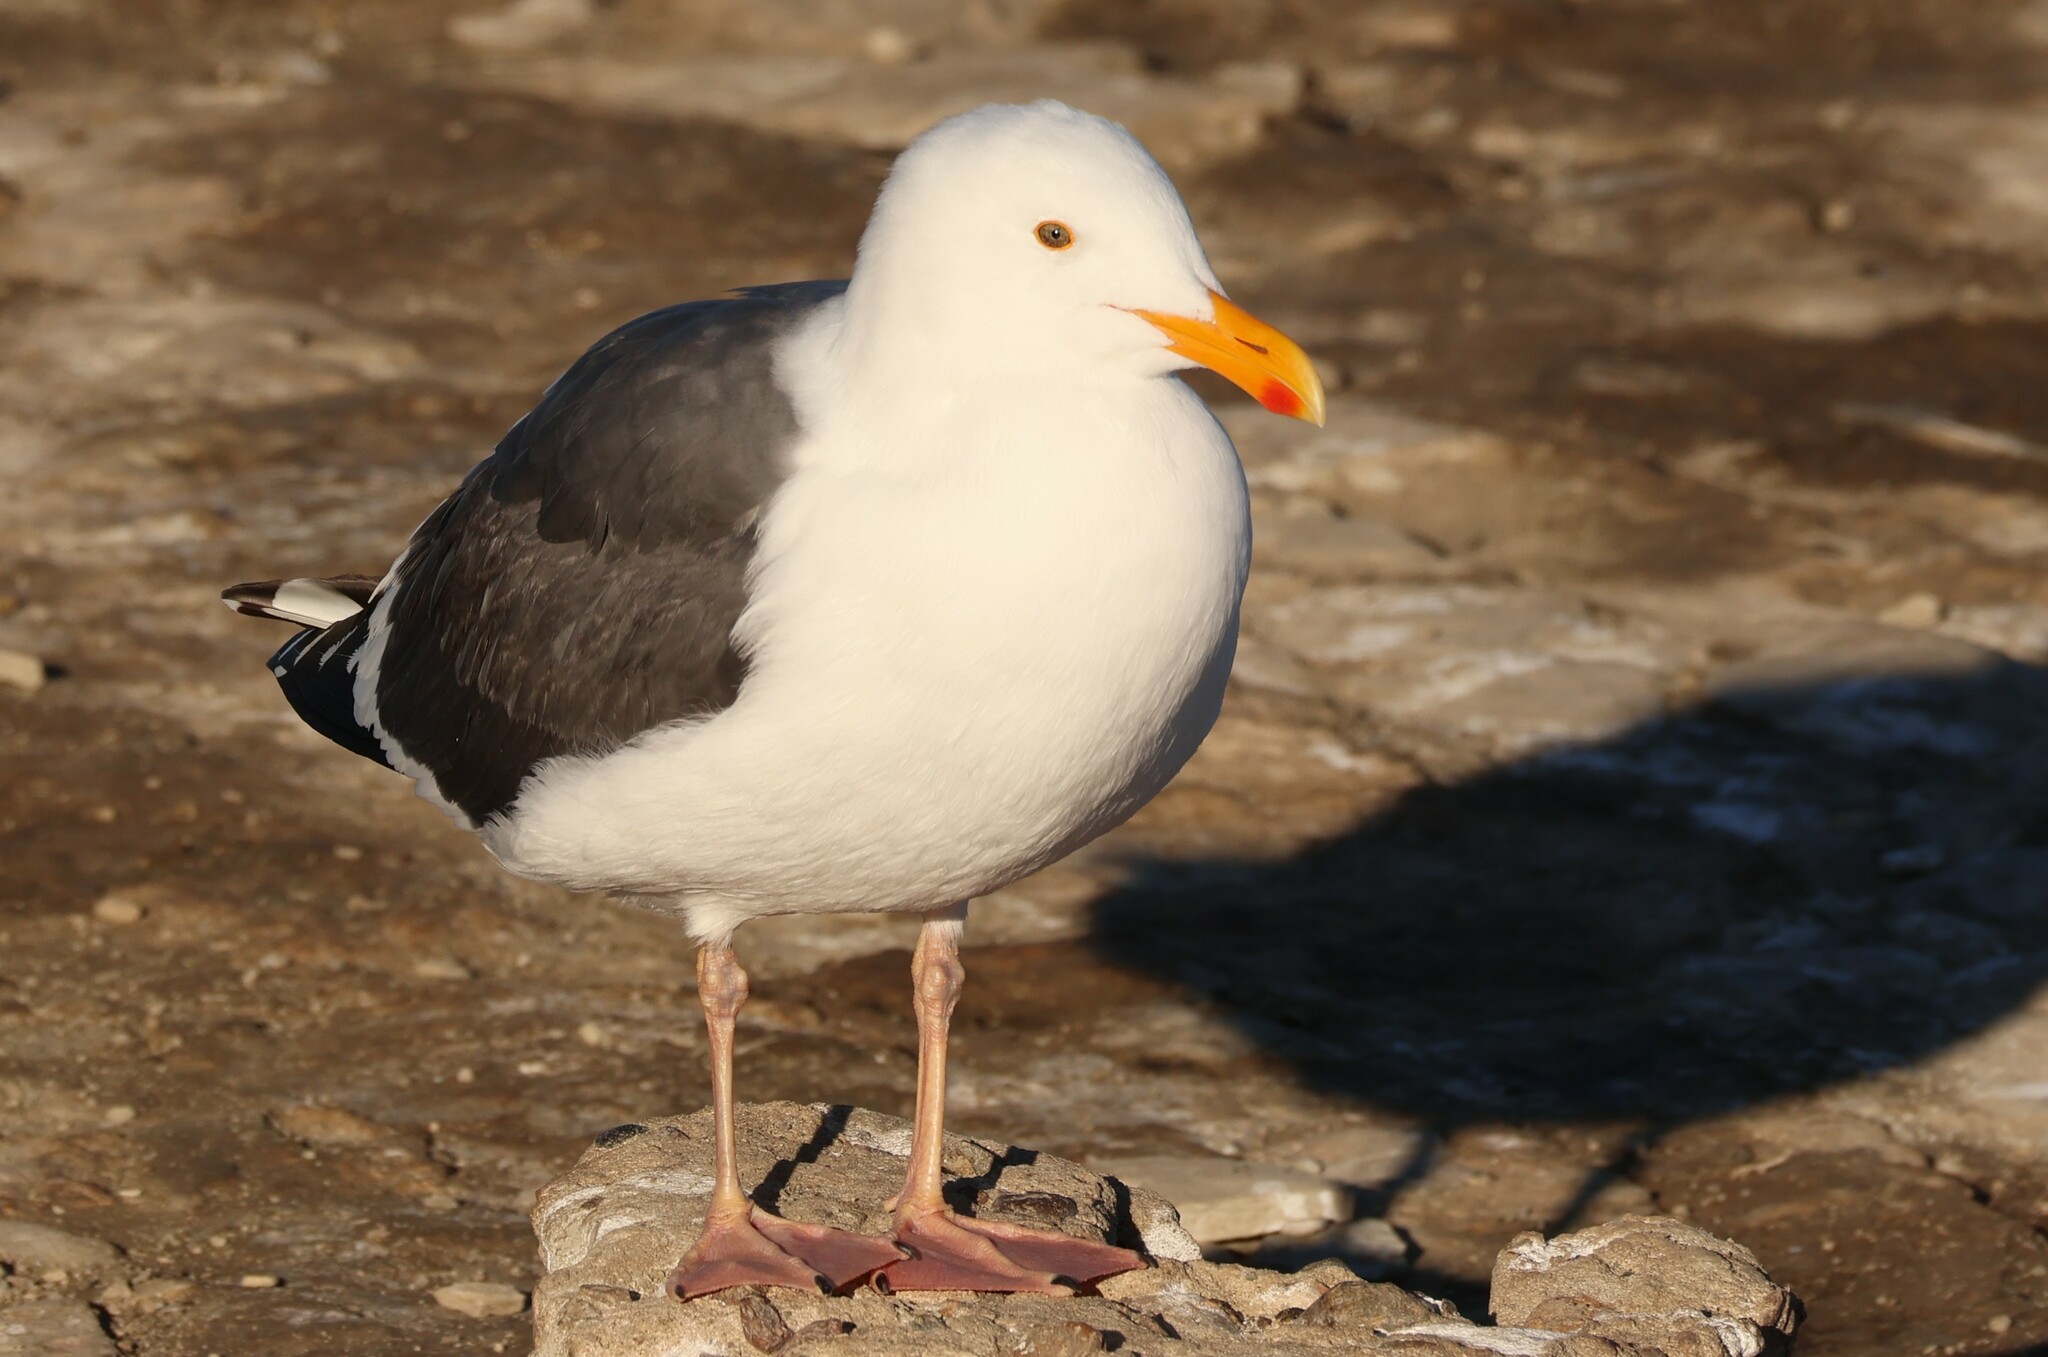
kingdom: Animalia
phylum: Chordata
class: Aves
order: Charadriiformes
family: Laridae
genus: Larus
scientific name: Larus occidentalis
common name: Western gull
